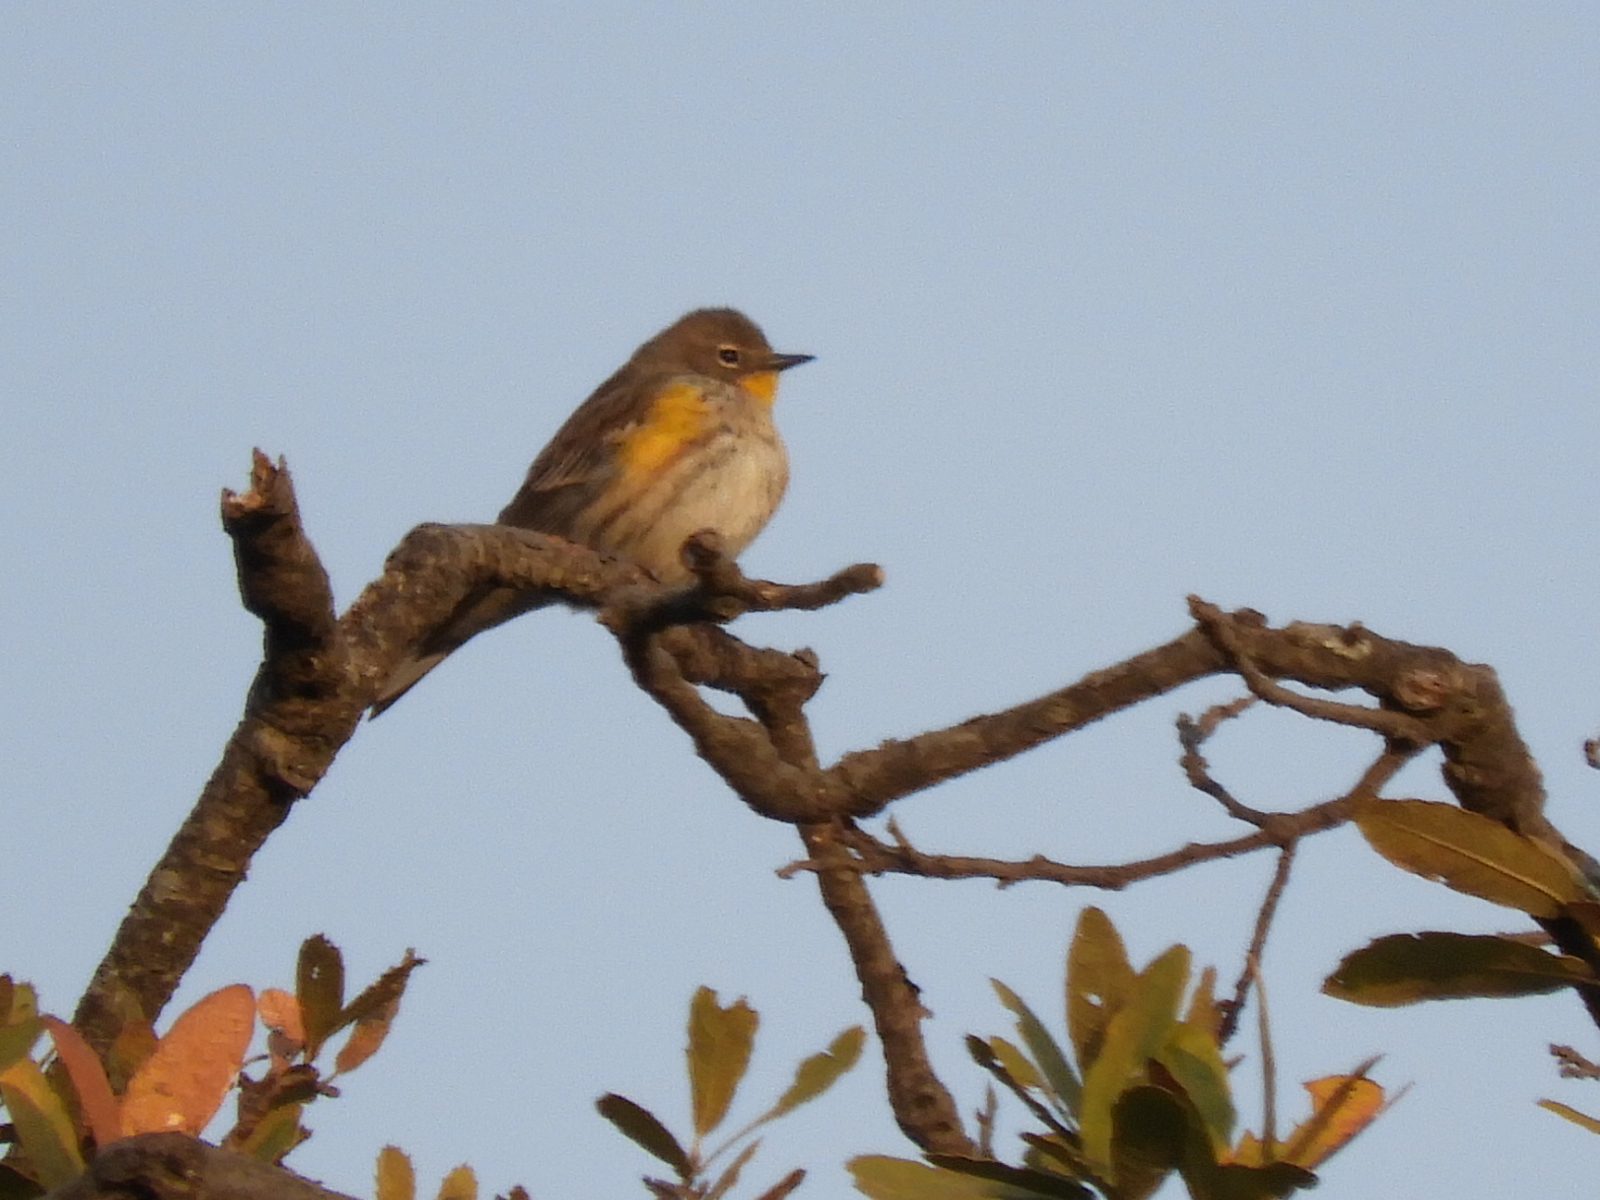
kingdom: Animalia
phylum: Chordata
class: Aves
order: Passeriformes
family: Parulidae
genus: Setophaga
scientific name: Setophaga auduboni
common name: Audubon's warbler
